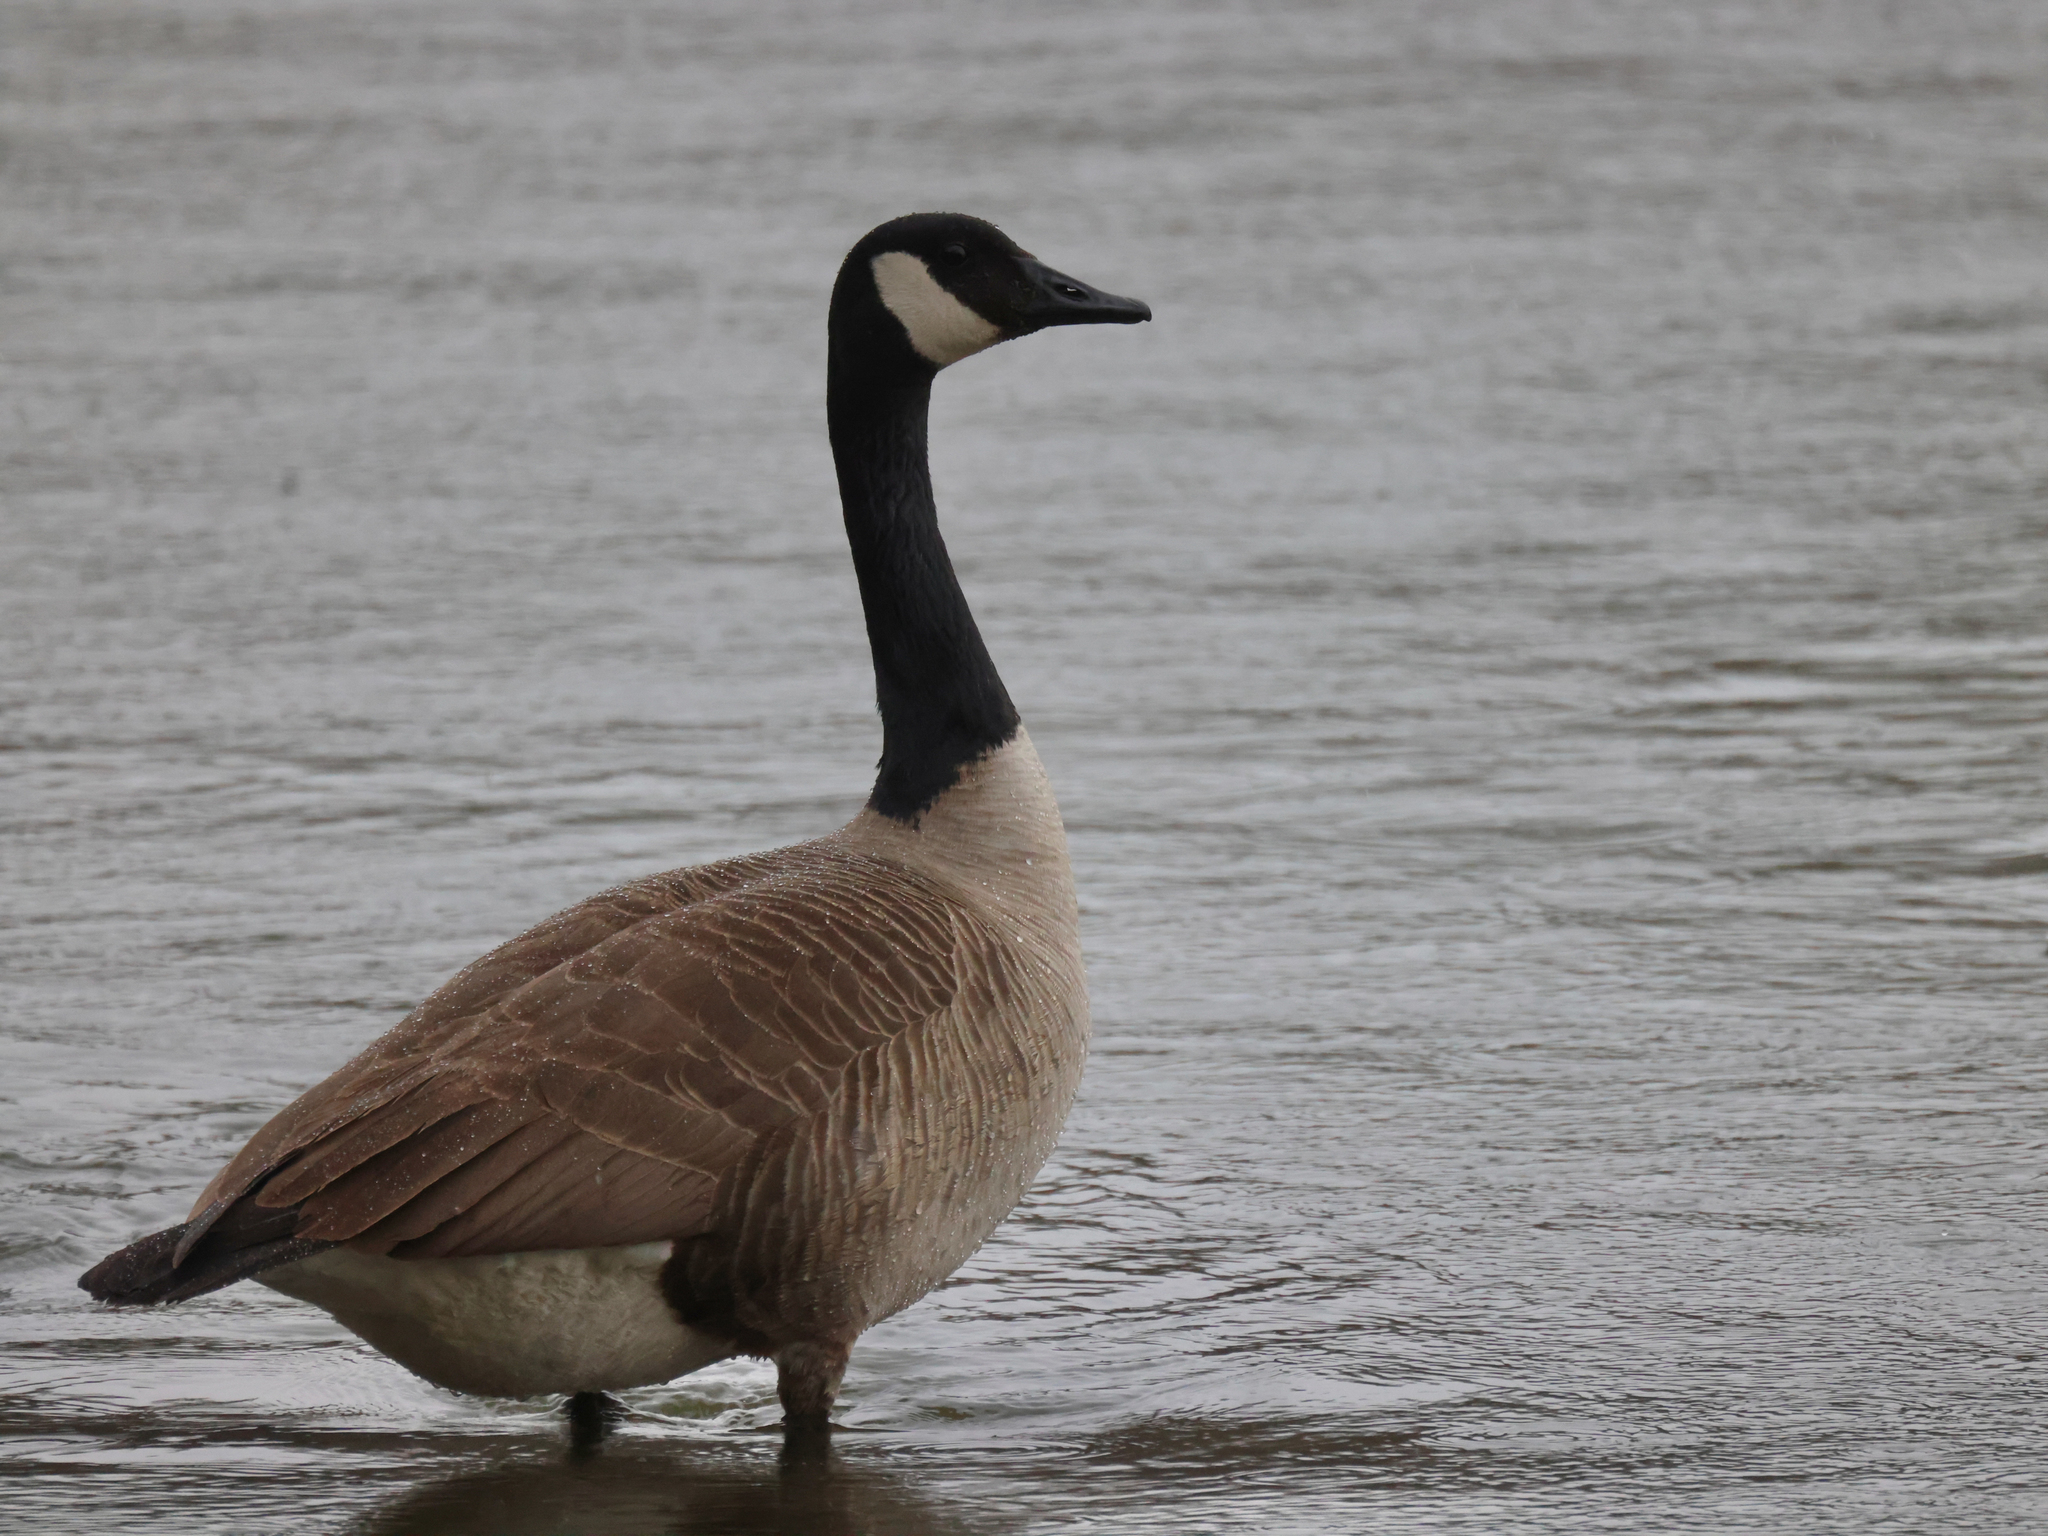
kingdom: Animalia
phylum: Chordata
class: Aves
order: Anseriformes
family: Anatidae
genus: Branta
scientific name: Branta canadensis
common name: Canada goose
